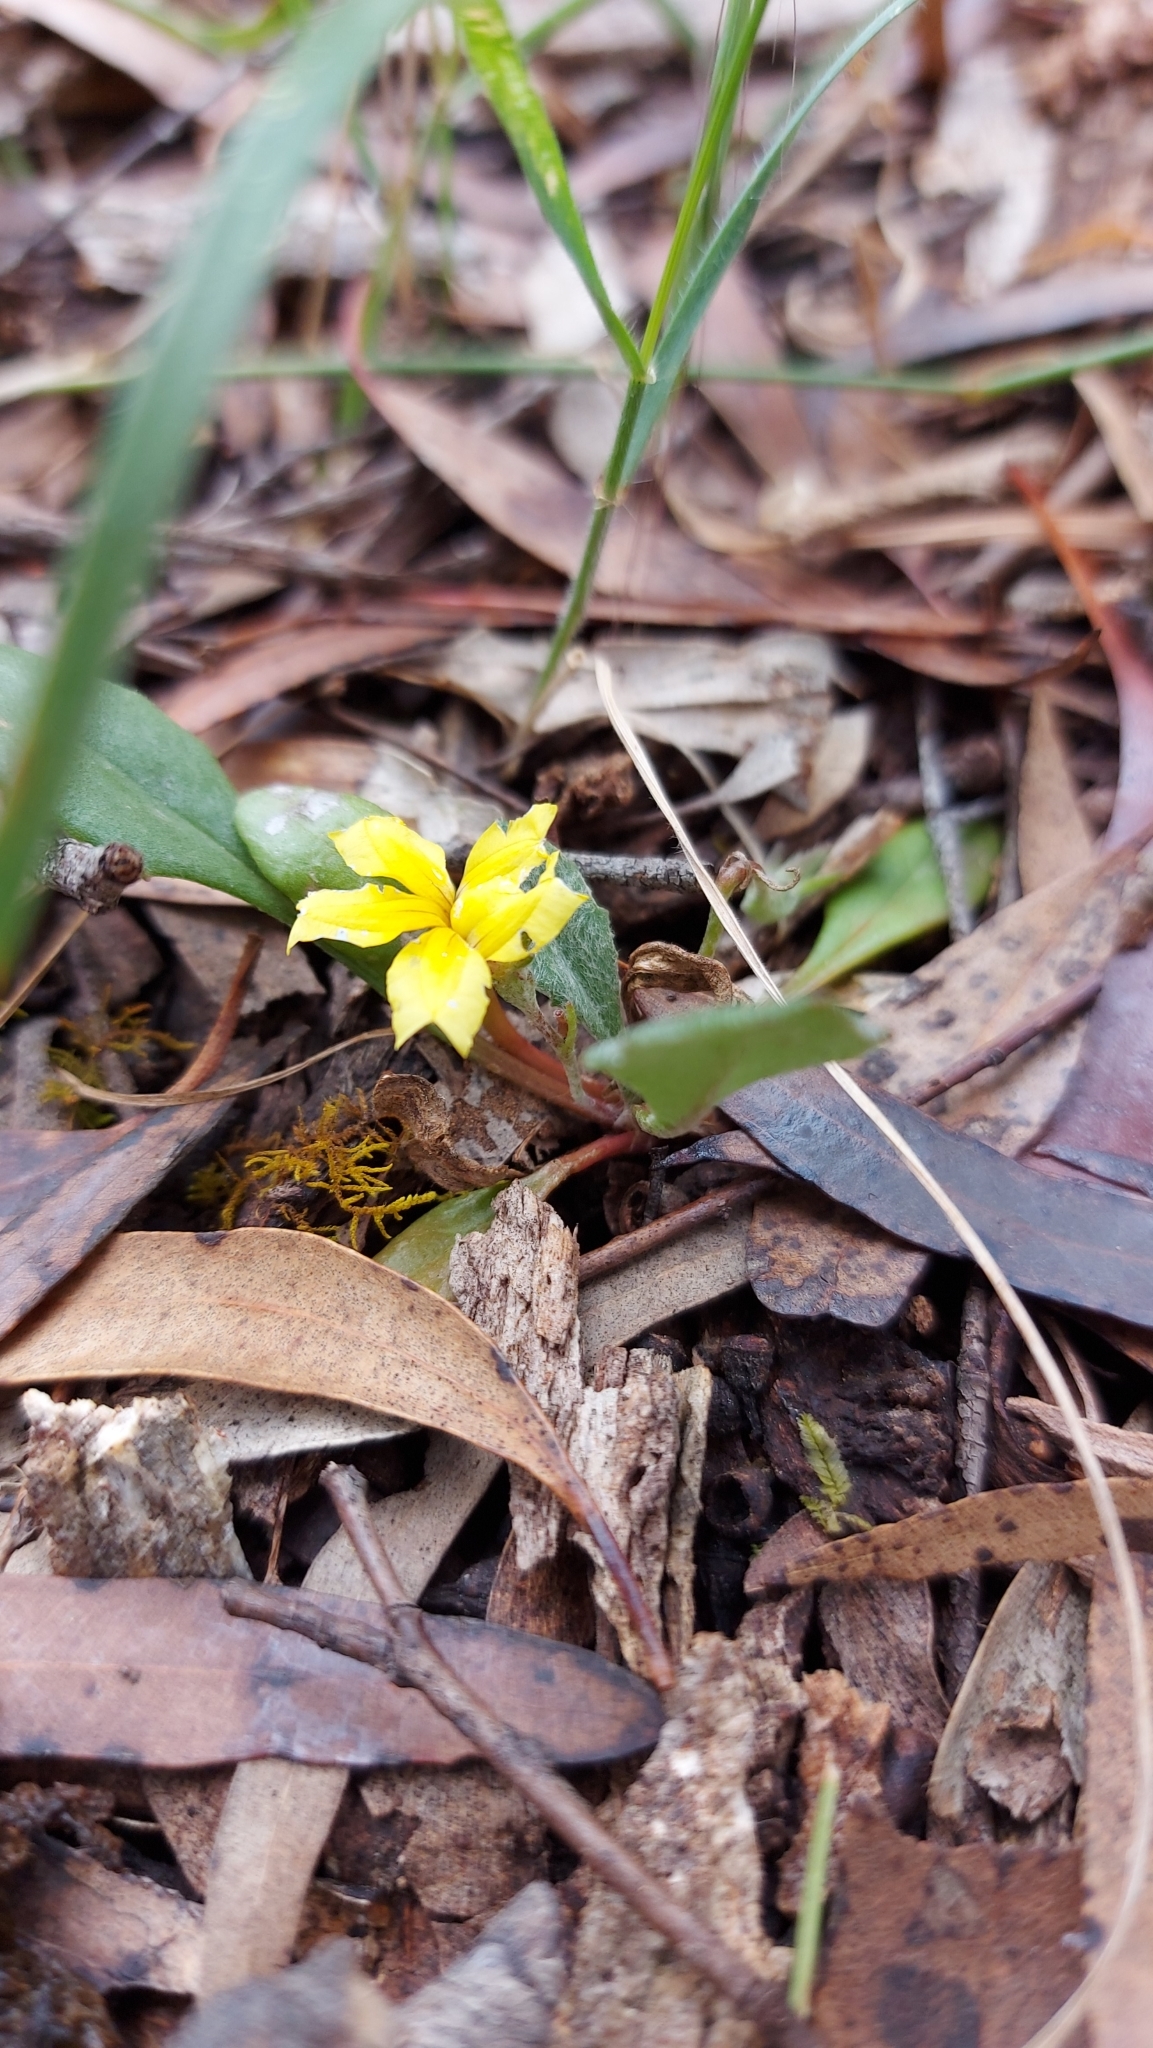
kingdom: Plantae
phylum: Tracheophyta
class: Magnoliopsida
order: Asterales
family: Goodeniaceae
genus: Goodenia
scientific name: Goodenia lanata
